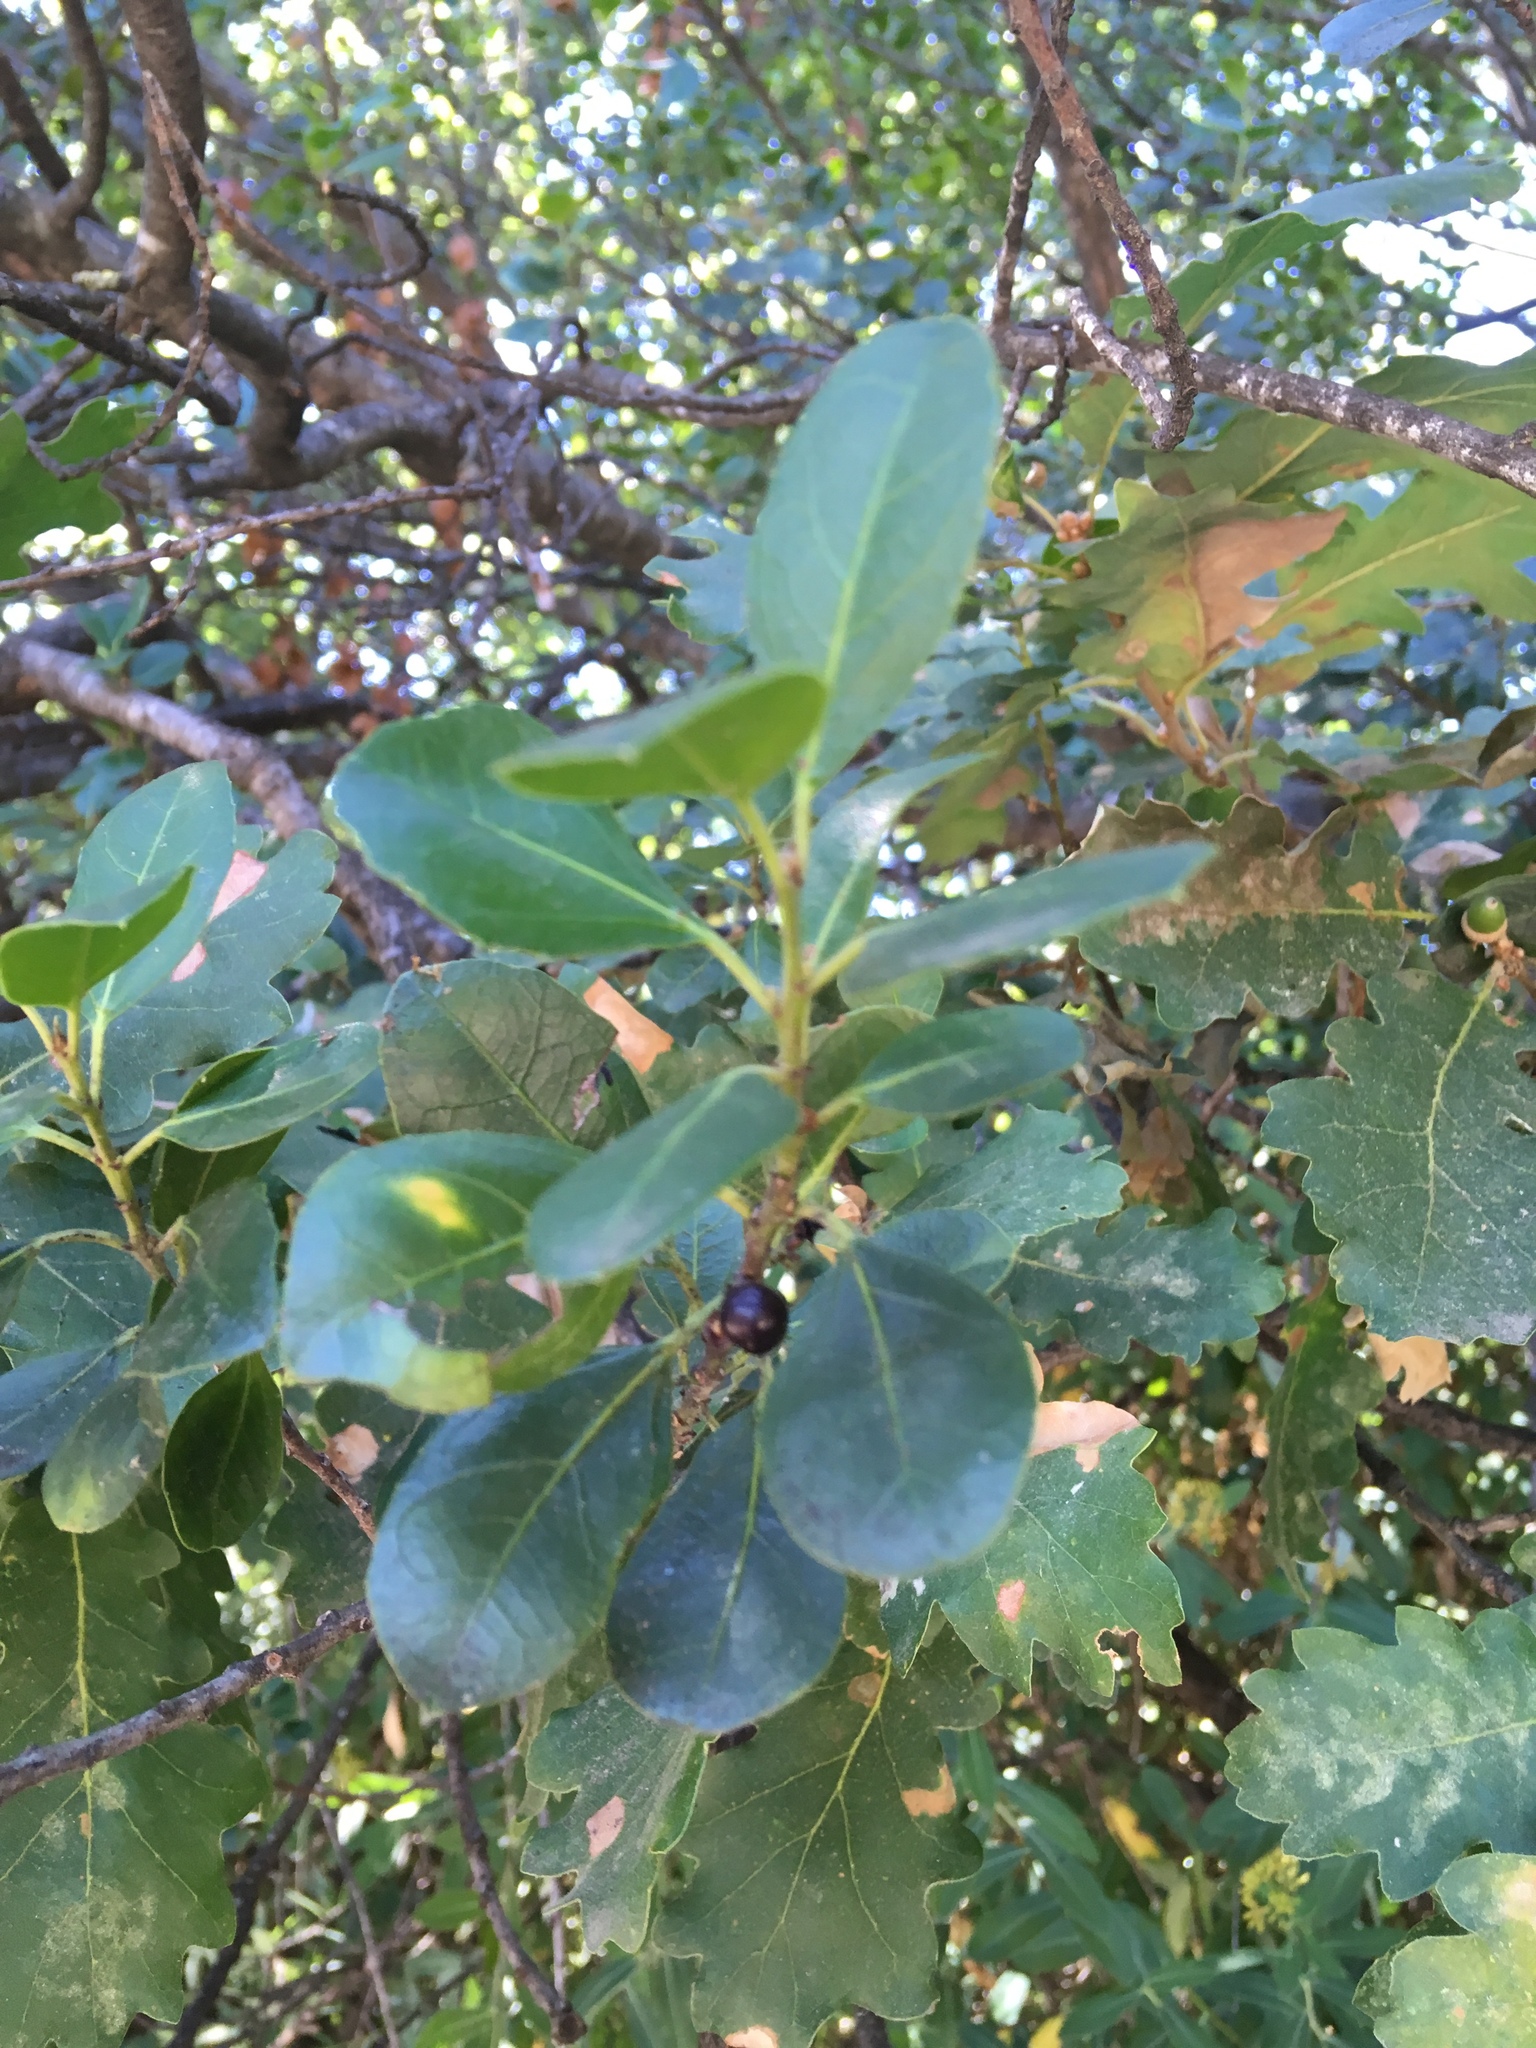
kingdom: Plantae
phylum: Tracheophyta
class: Magnoliopsida
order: Rosales
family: Rhamnaceae
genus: Rhamnus
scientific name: Rhamnus alaternus
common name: Mediterranean buckthorn
